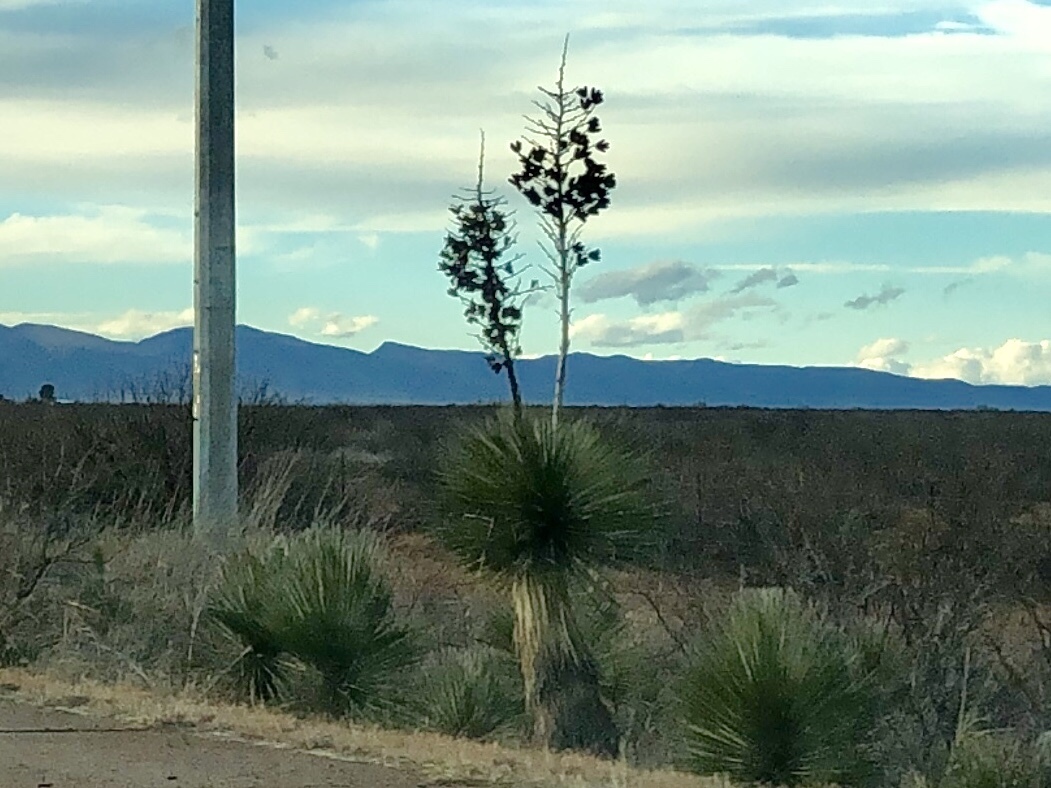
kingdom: Plantae
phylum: Tracheophyta
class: Liliopsida
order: Asparagales
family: Asparagaceae
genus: Yucca
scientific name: Yucca elata
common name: Palmella
